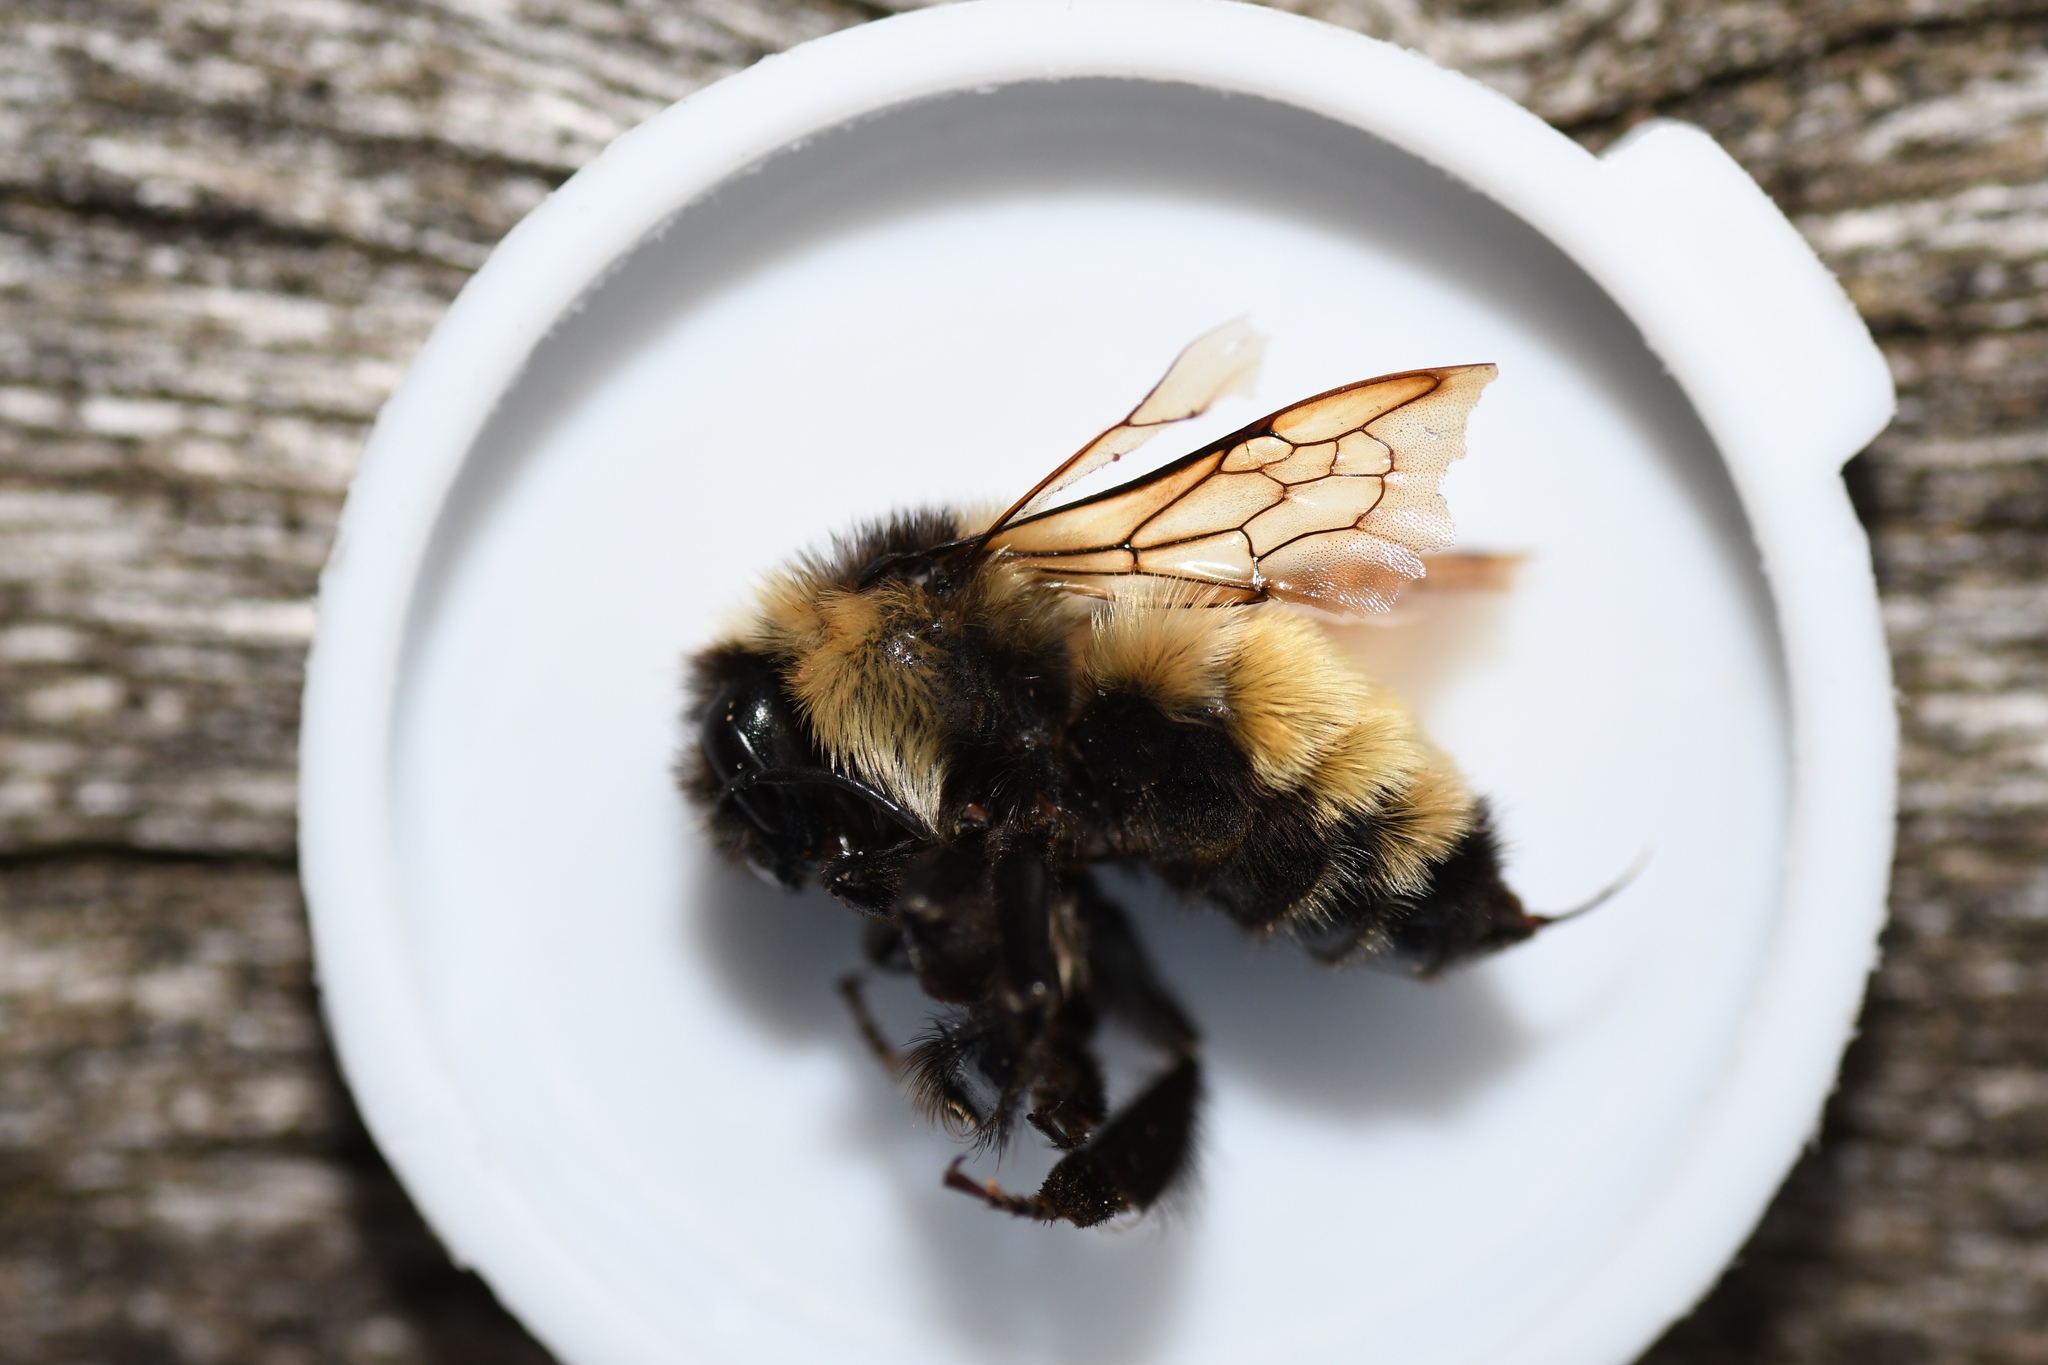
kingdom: Animalia
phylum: Arthropoda
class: Insecta
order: Hymenoptera
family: Apidae
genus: Bombus
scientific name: Bombus ternarius
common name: Tri-colored bumble bee
